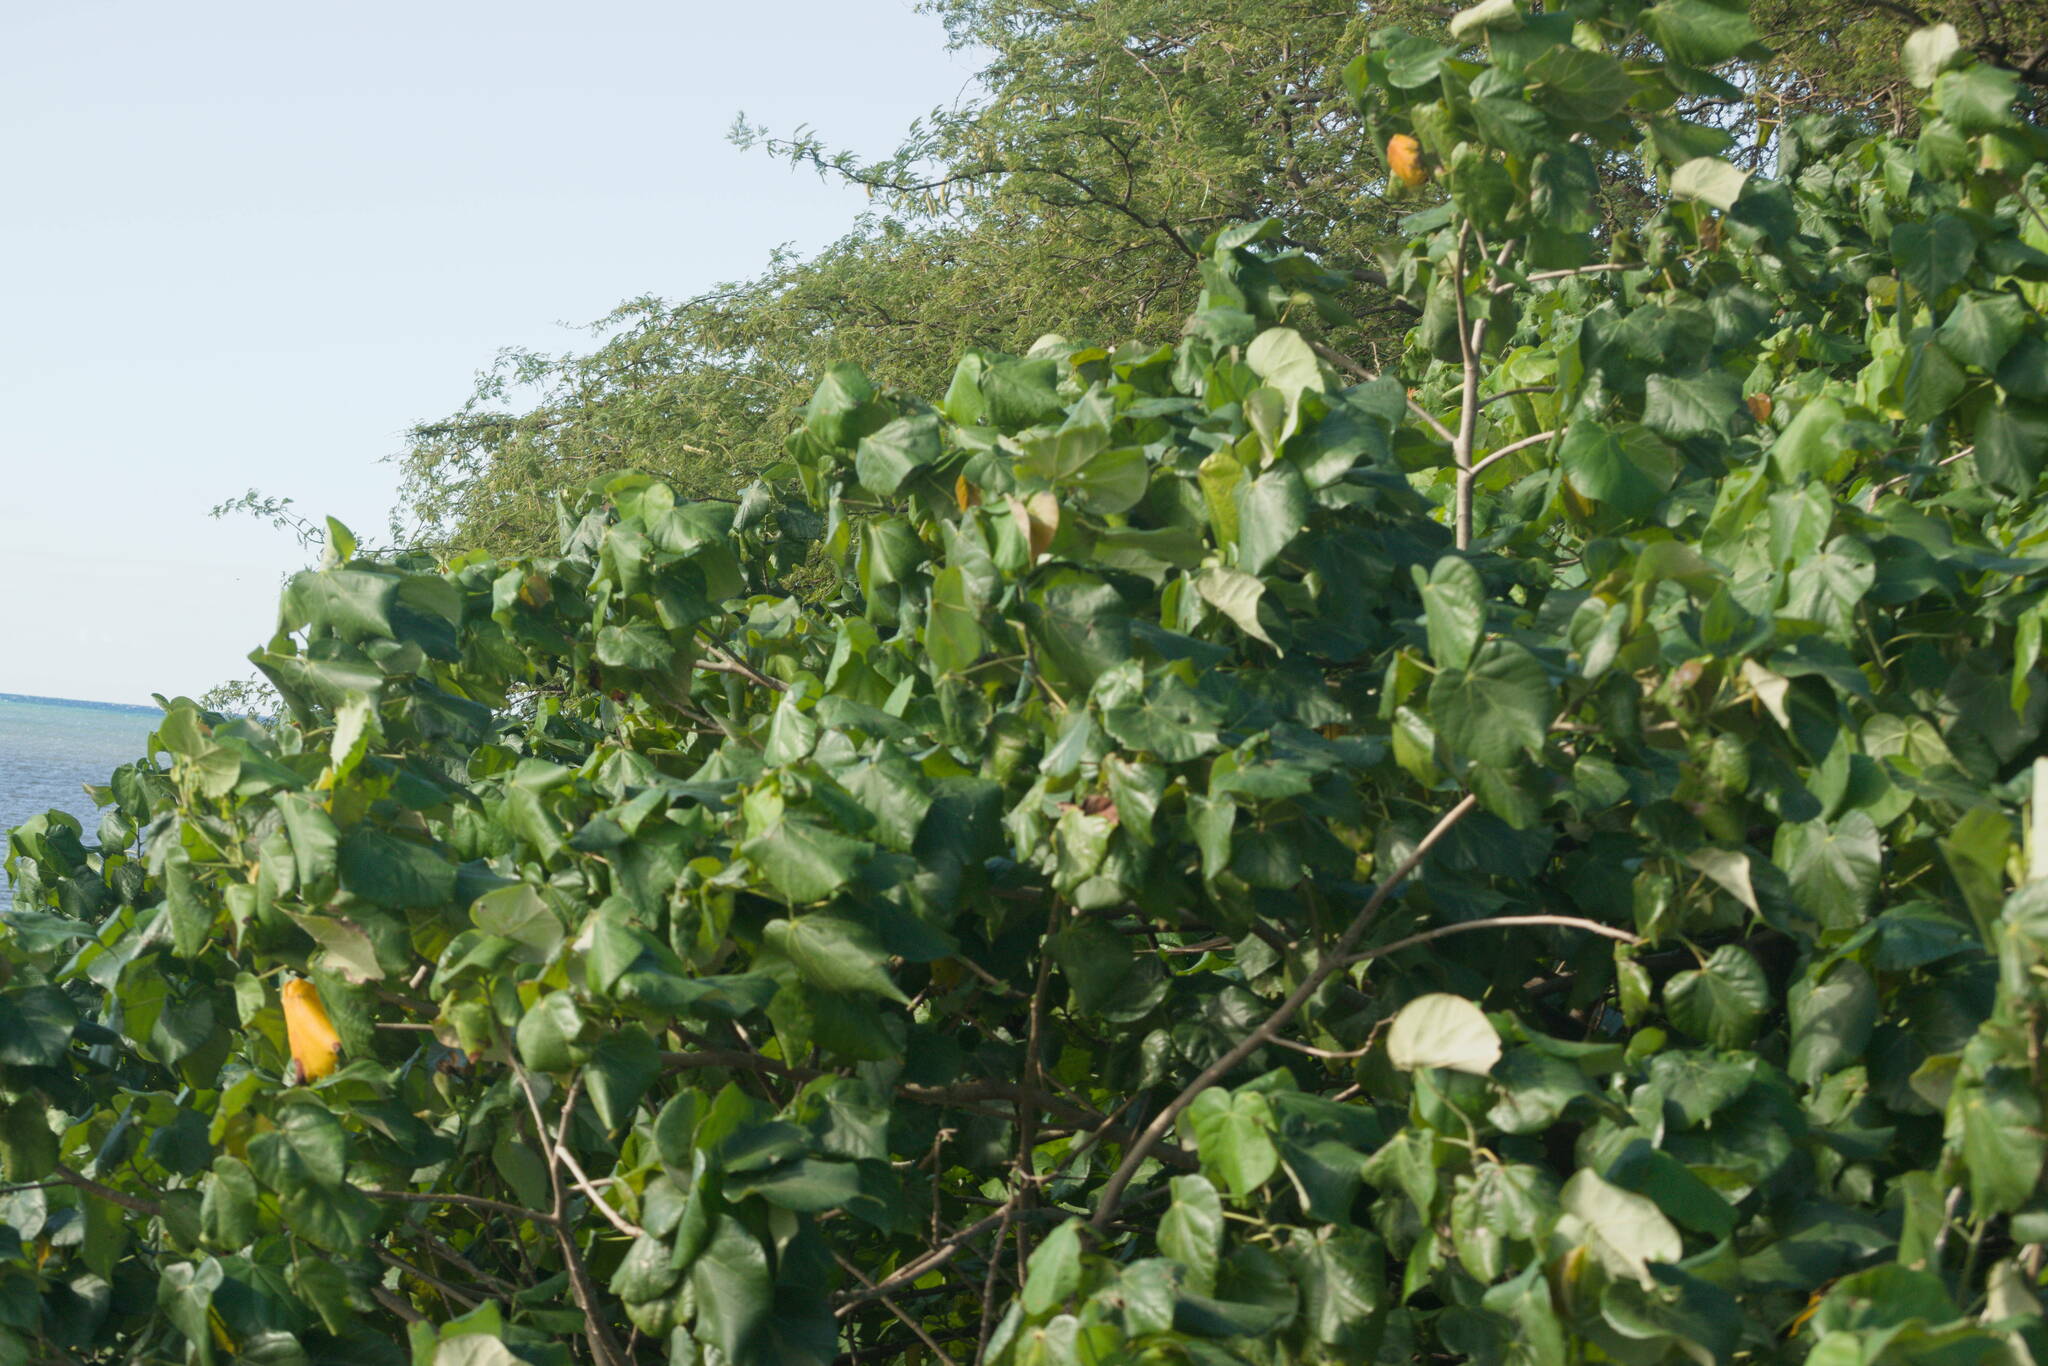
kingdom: Plantae
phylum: Tracheophyta
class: Magnoliopsida
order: Malvales
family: Malvaceae
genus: Talipariti
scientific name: Talipariti tiliaceum
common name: Sea hibiscus
